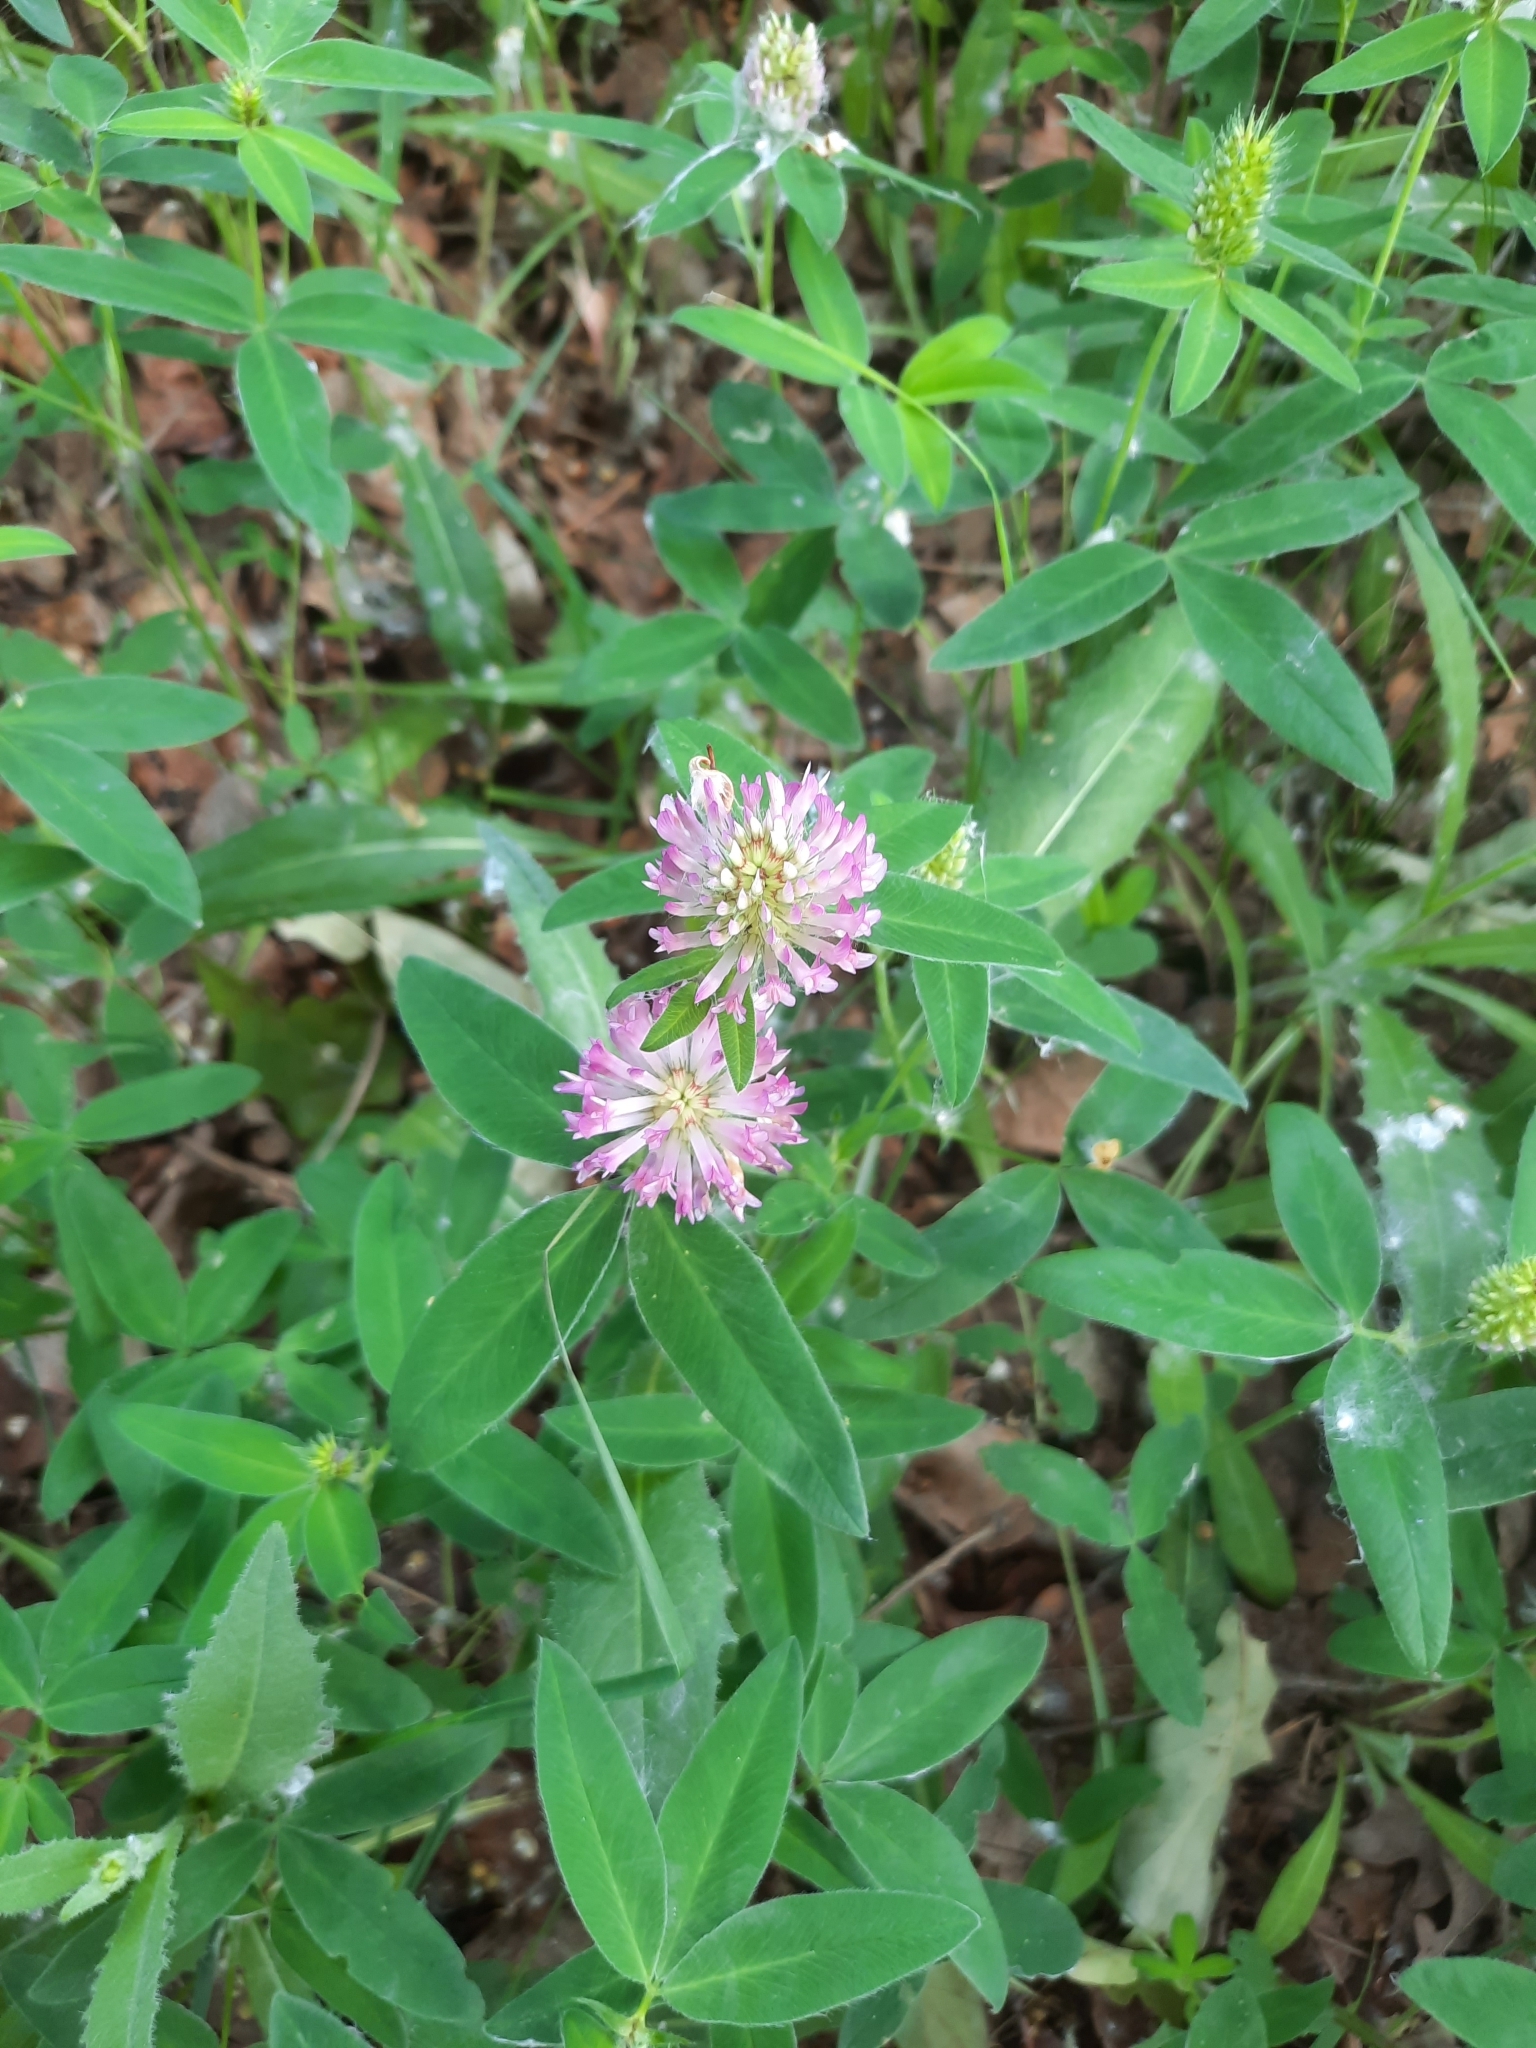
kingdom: Plantae
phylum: Tracheophyta
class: Magnoliopsida
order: Fabales
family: Fabaceae
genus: Trifolium
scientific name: Trifolium medium
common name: Zigzag clover
